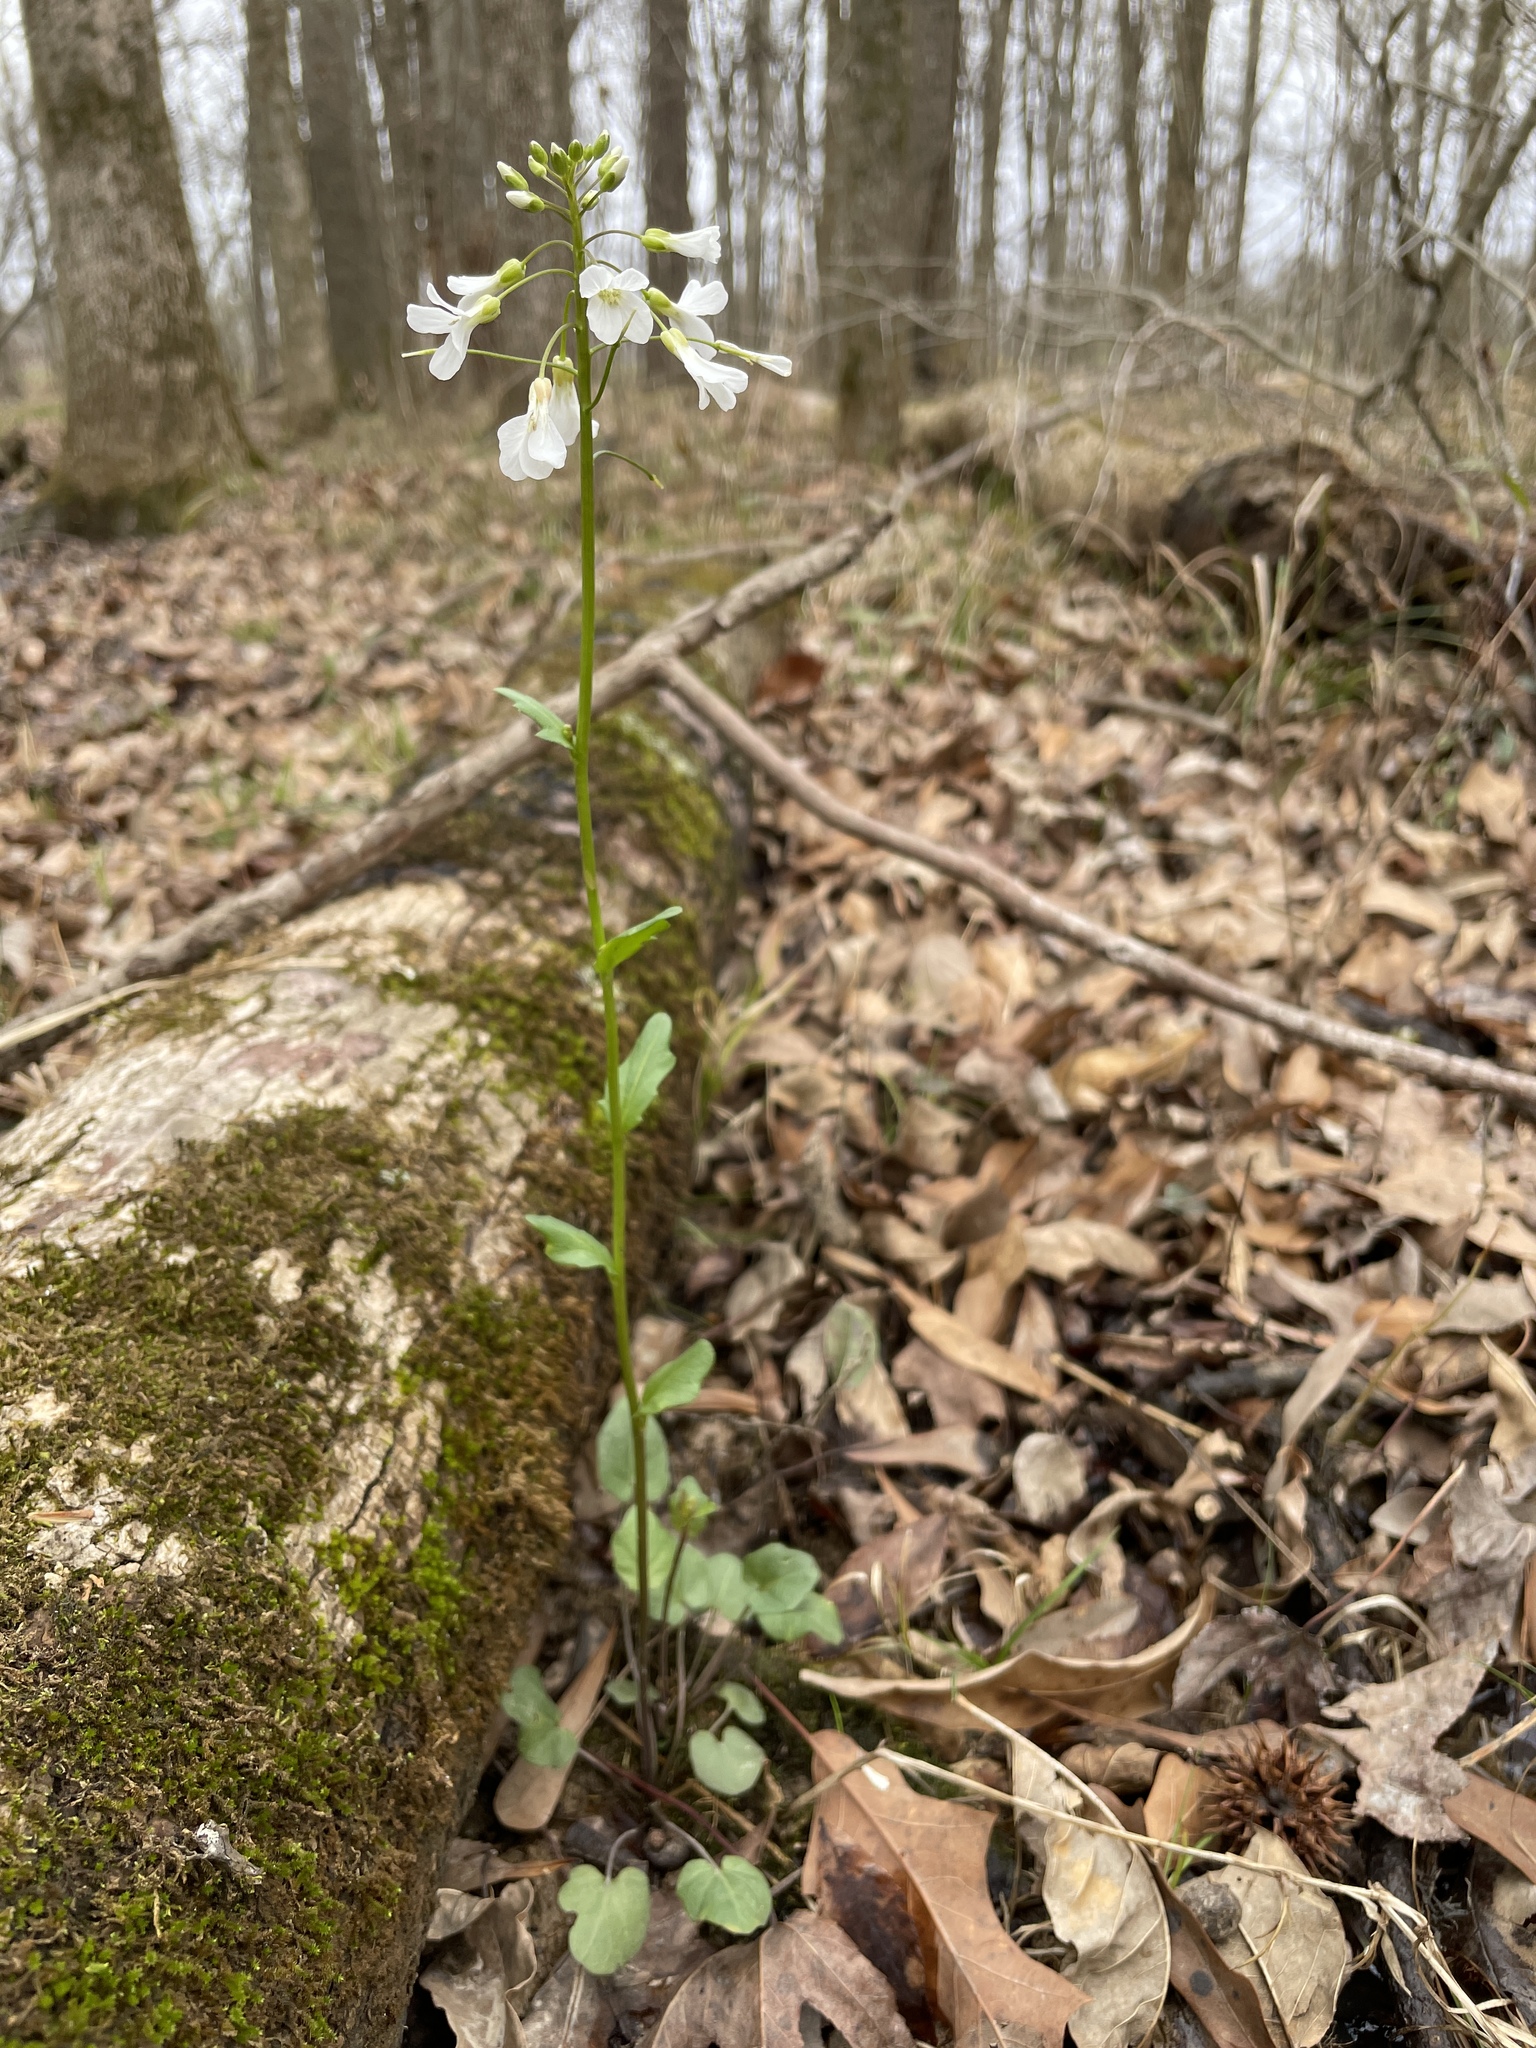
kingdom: Plantae
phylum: Tracheophyta
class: Magnoliopsida
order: Brassicales
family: Brassicaceae
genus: Cardamine
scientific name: Cardamine bulbosa
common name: Spring cress
